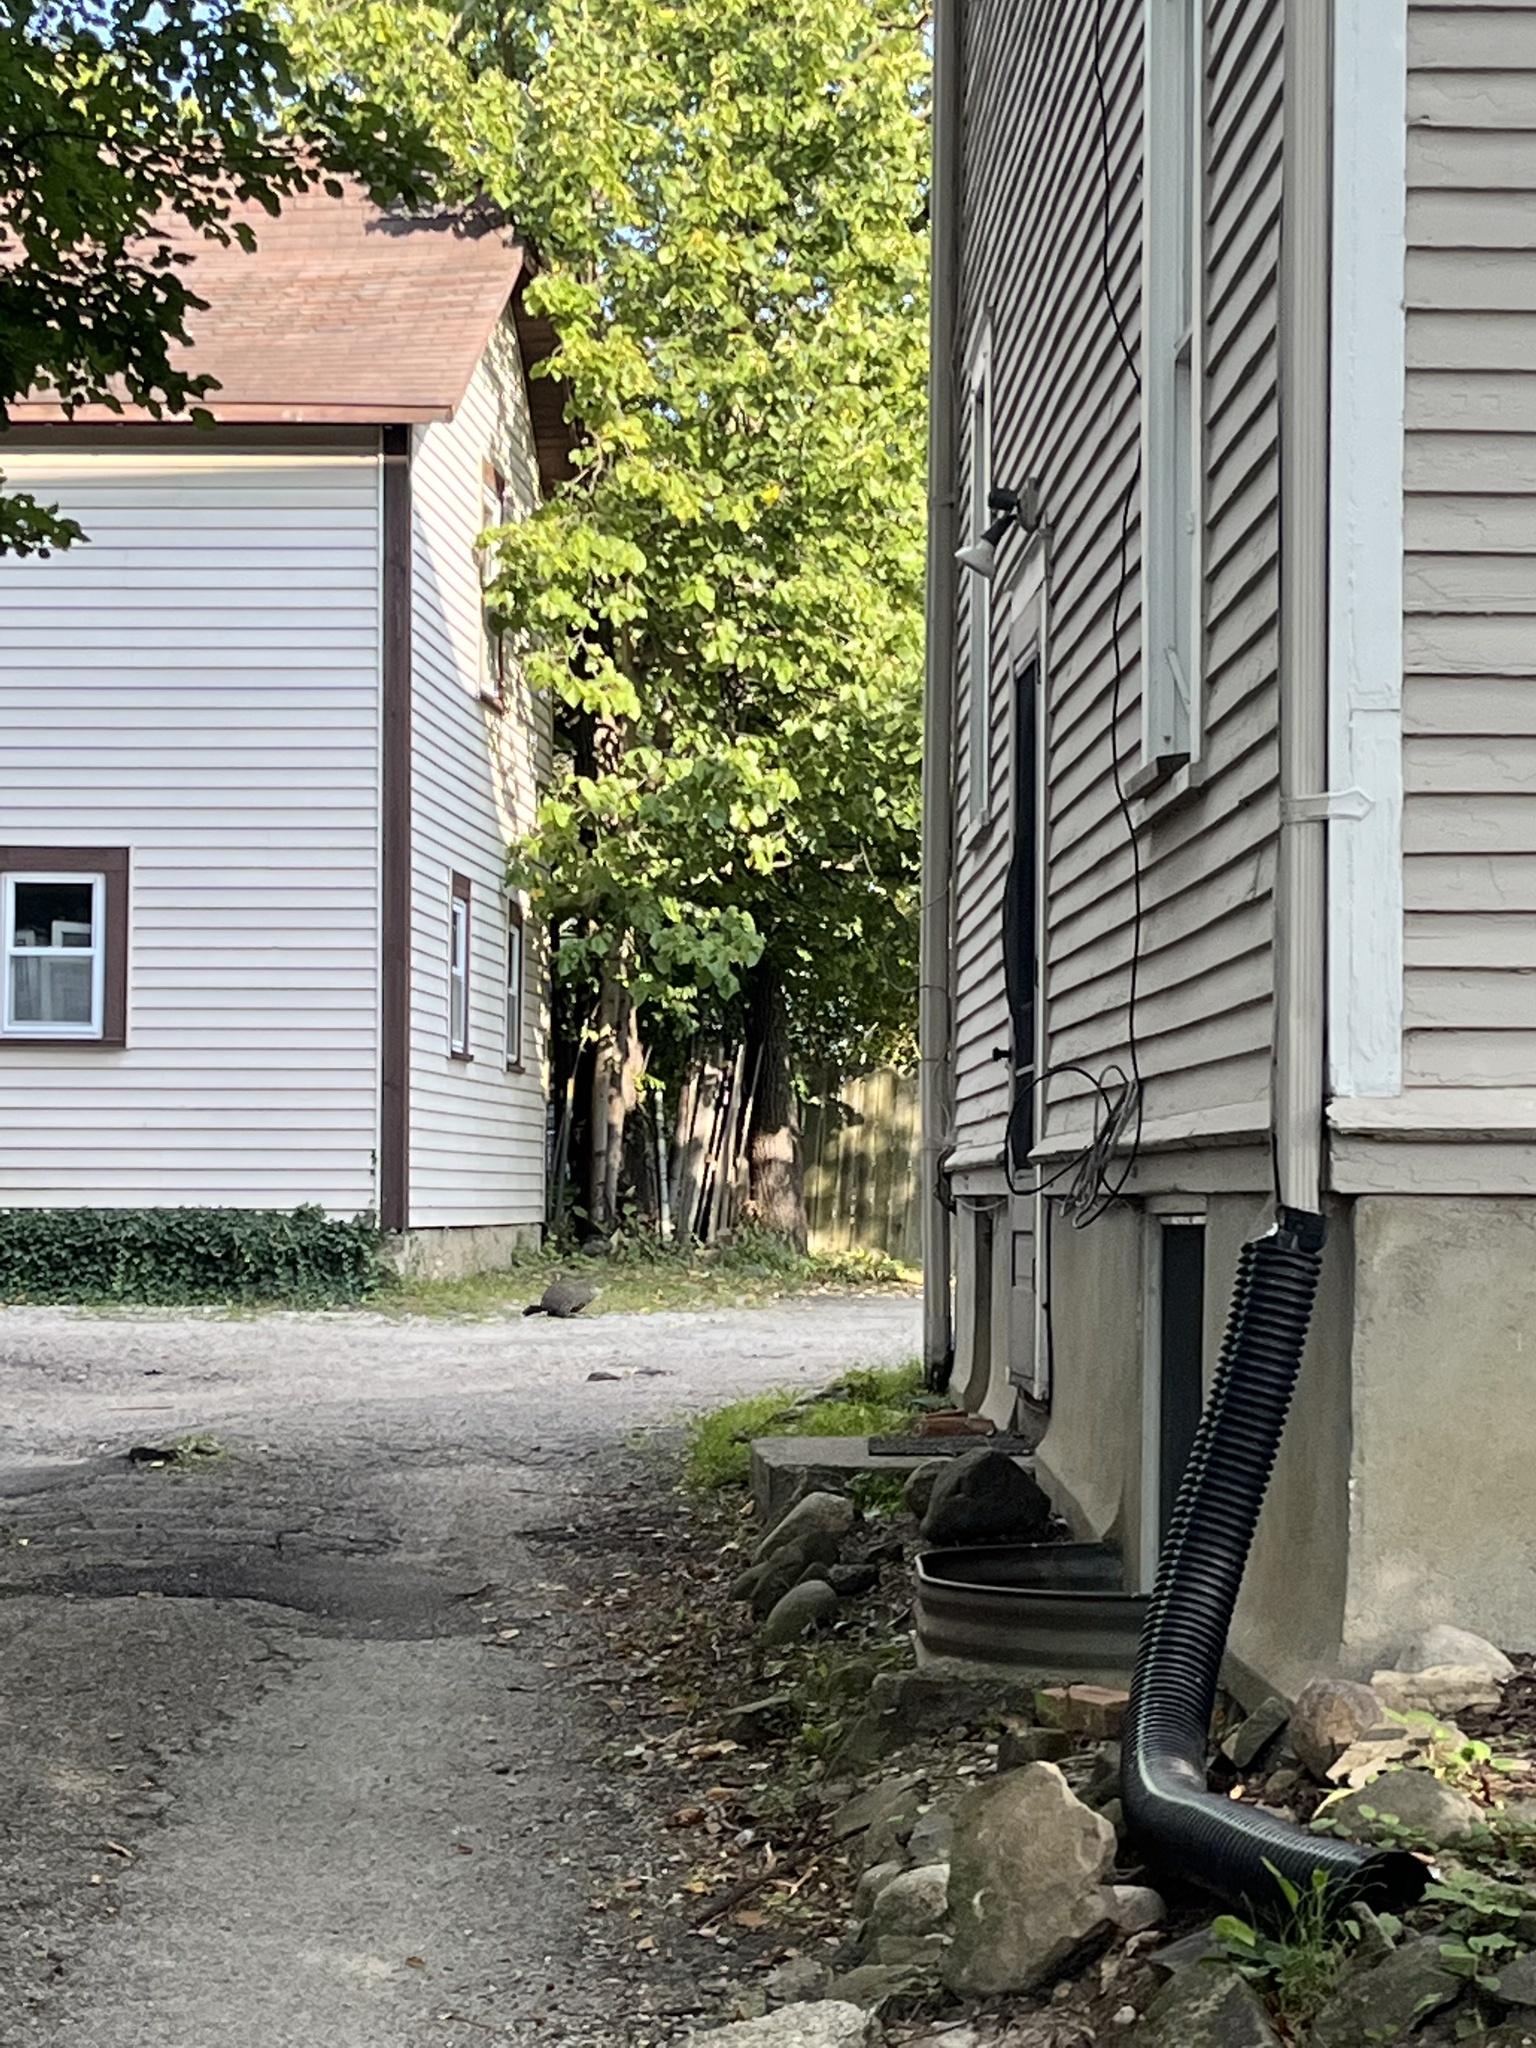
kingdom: Animalia
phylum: Chordata
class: Mammalia
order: Rodentia
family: Sciuridae
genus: Marmota
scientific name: Marmota monax
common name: Groundhog
